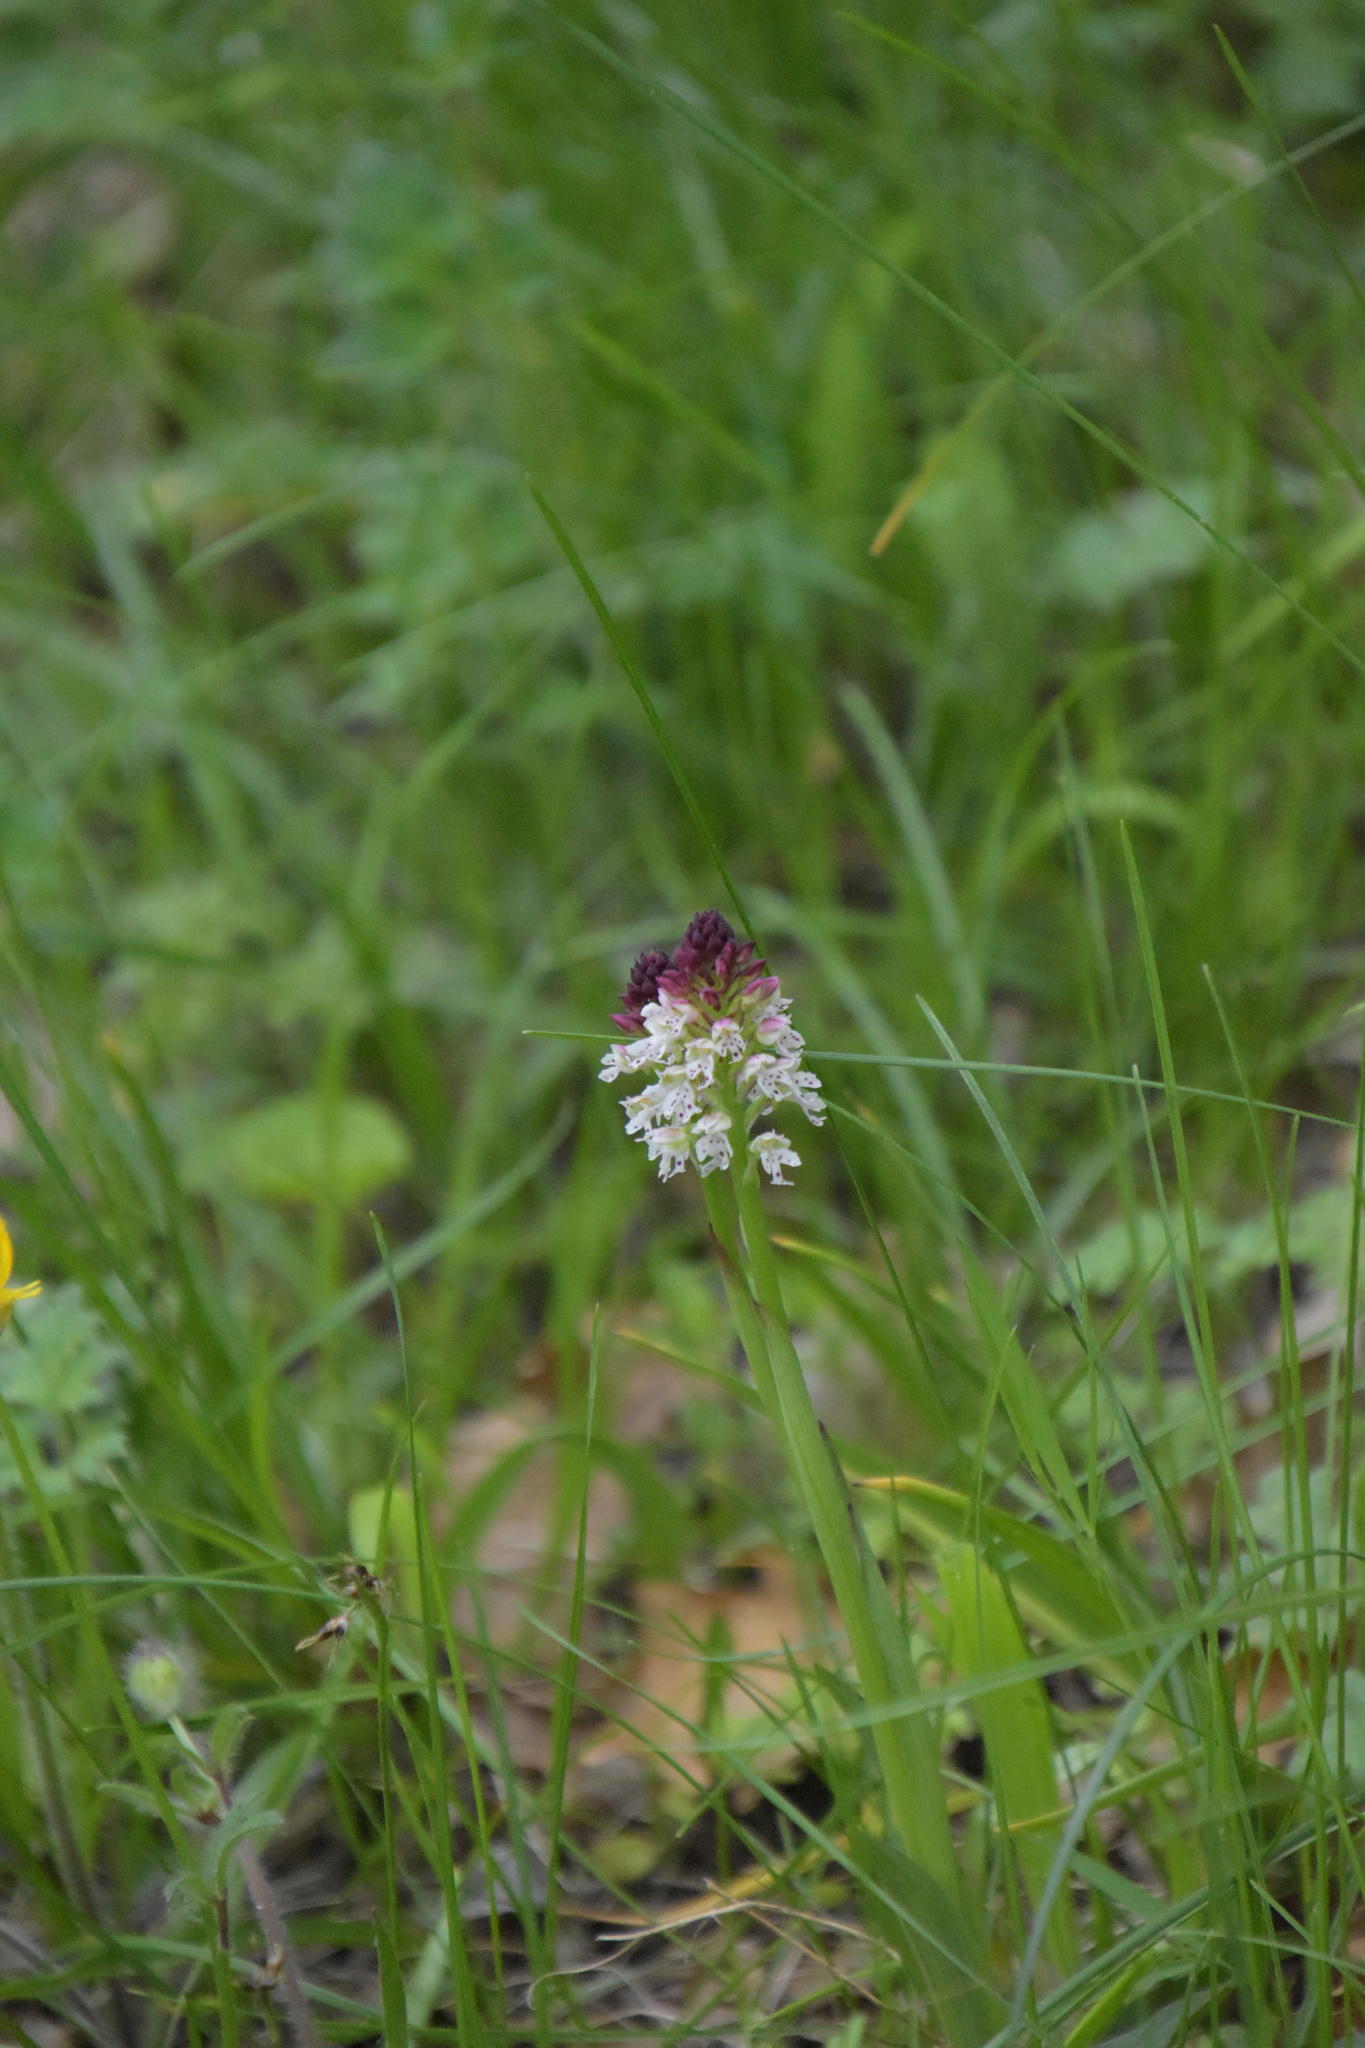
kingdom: Plantae
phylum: Tracheophyta
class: Liliopsida
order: Asparagales
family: Orchidaceae
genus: Neotinea
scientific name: Neotinea ustulata
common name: Burnt orchid
